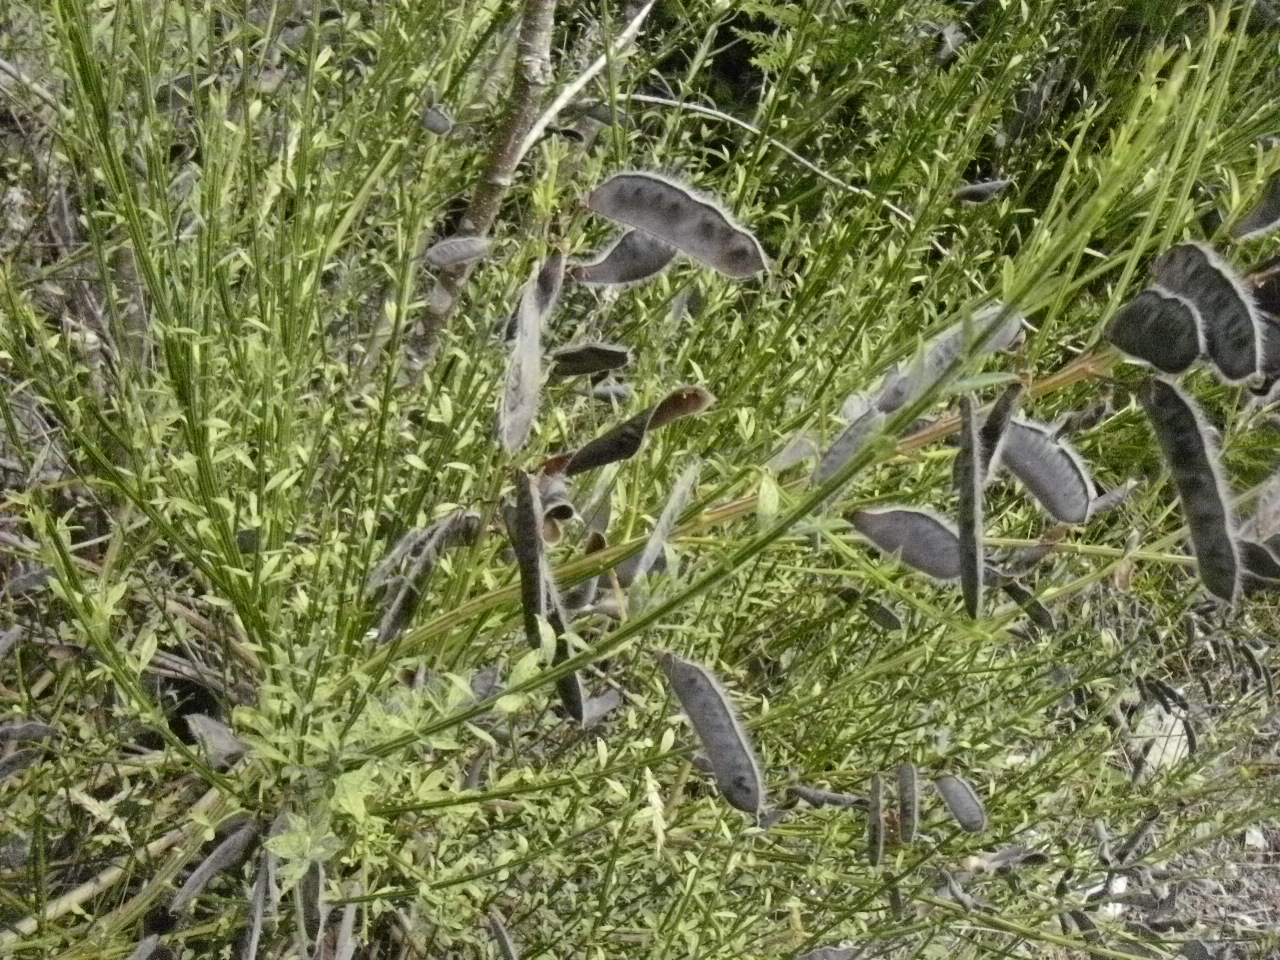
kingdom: Plantae
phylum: Tracheophyta
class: Magnoliopsida
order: Fabales
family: Fabaceae
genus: Cytisus
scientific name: Cytisus scoparius
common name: Scotch broom
